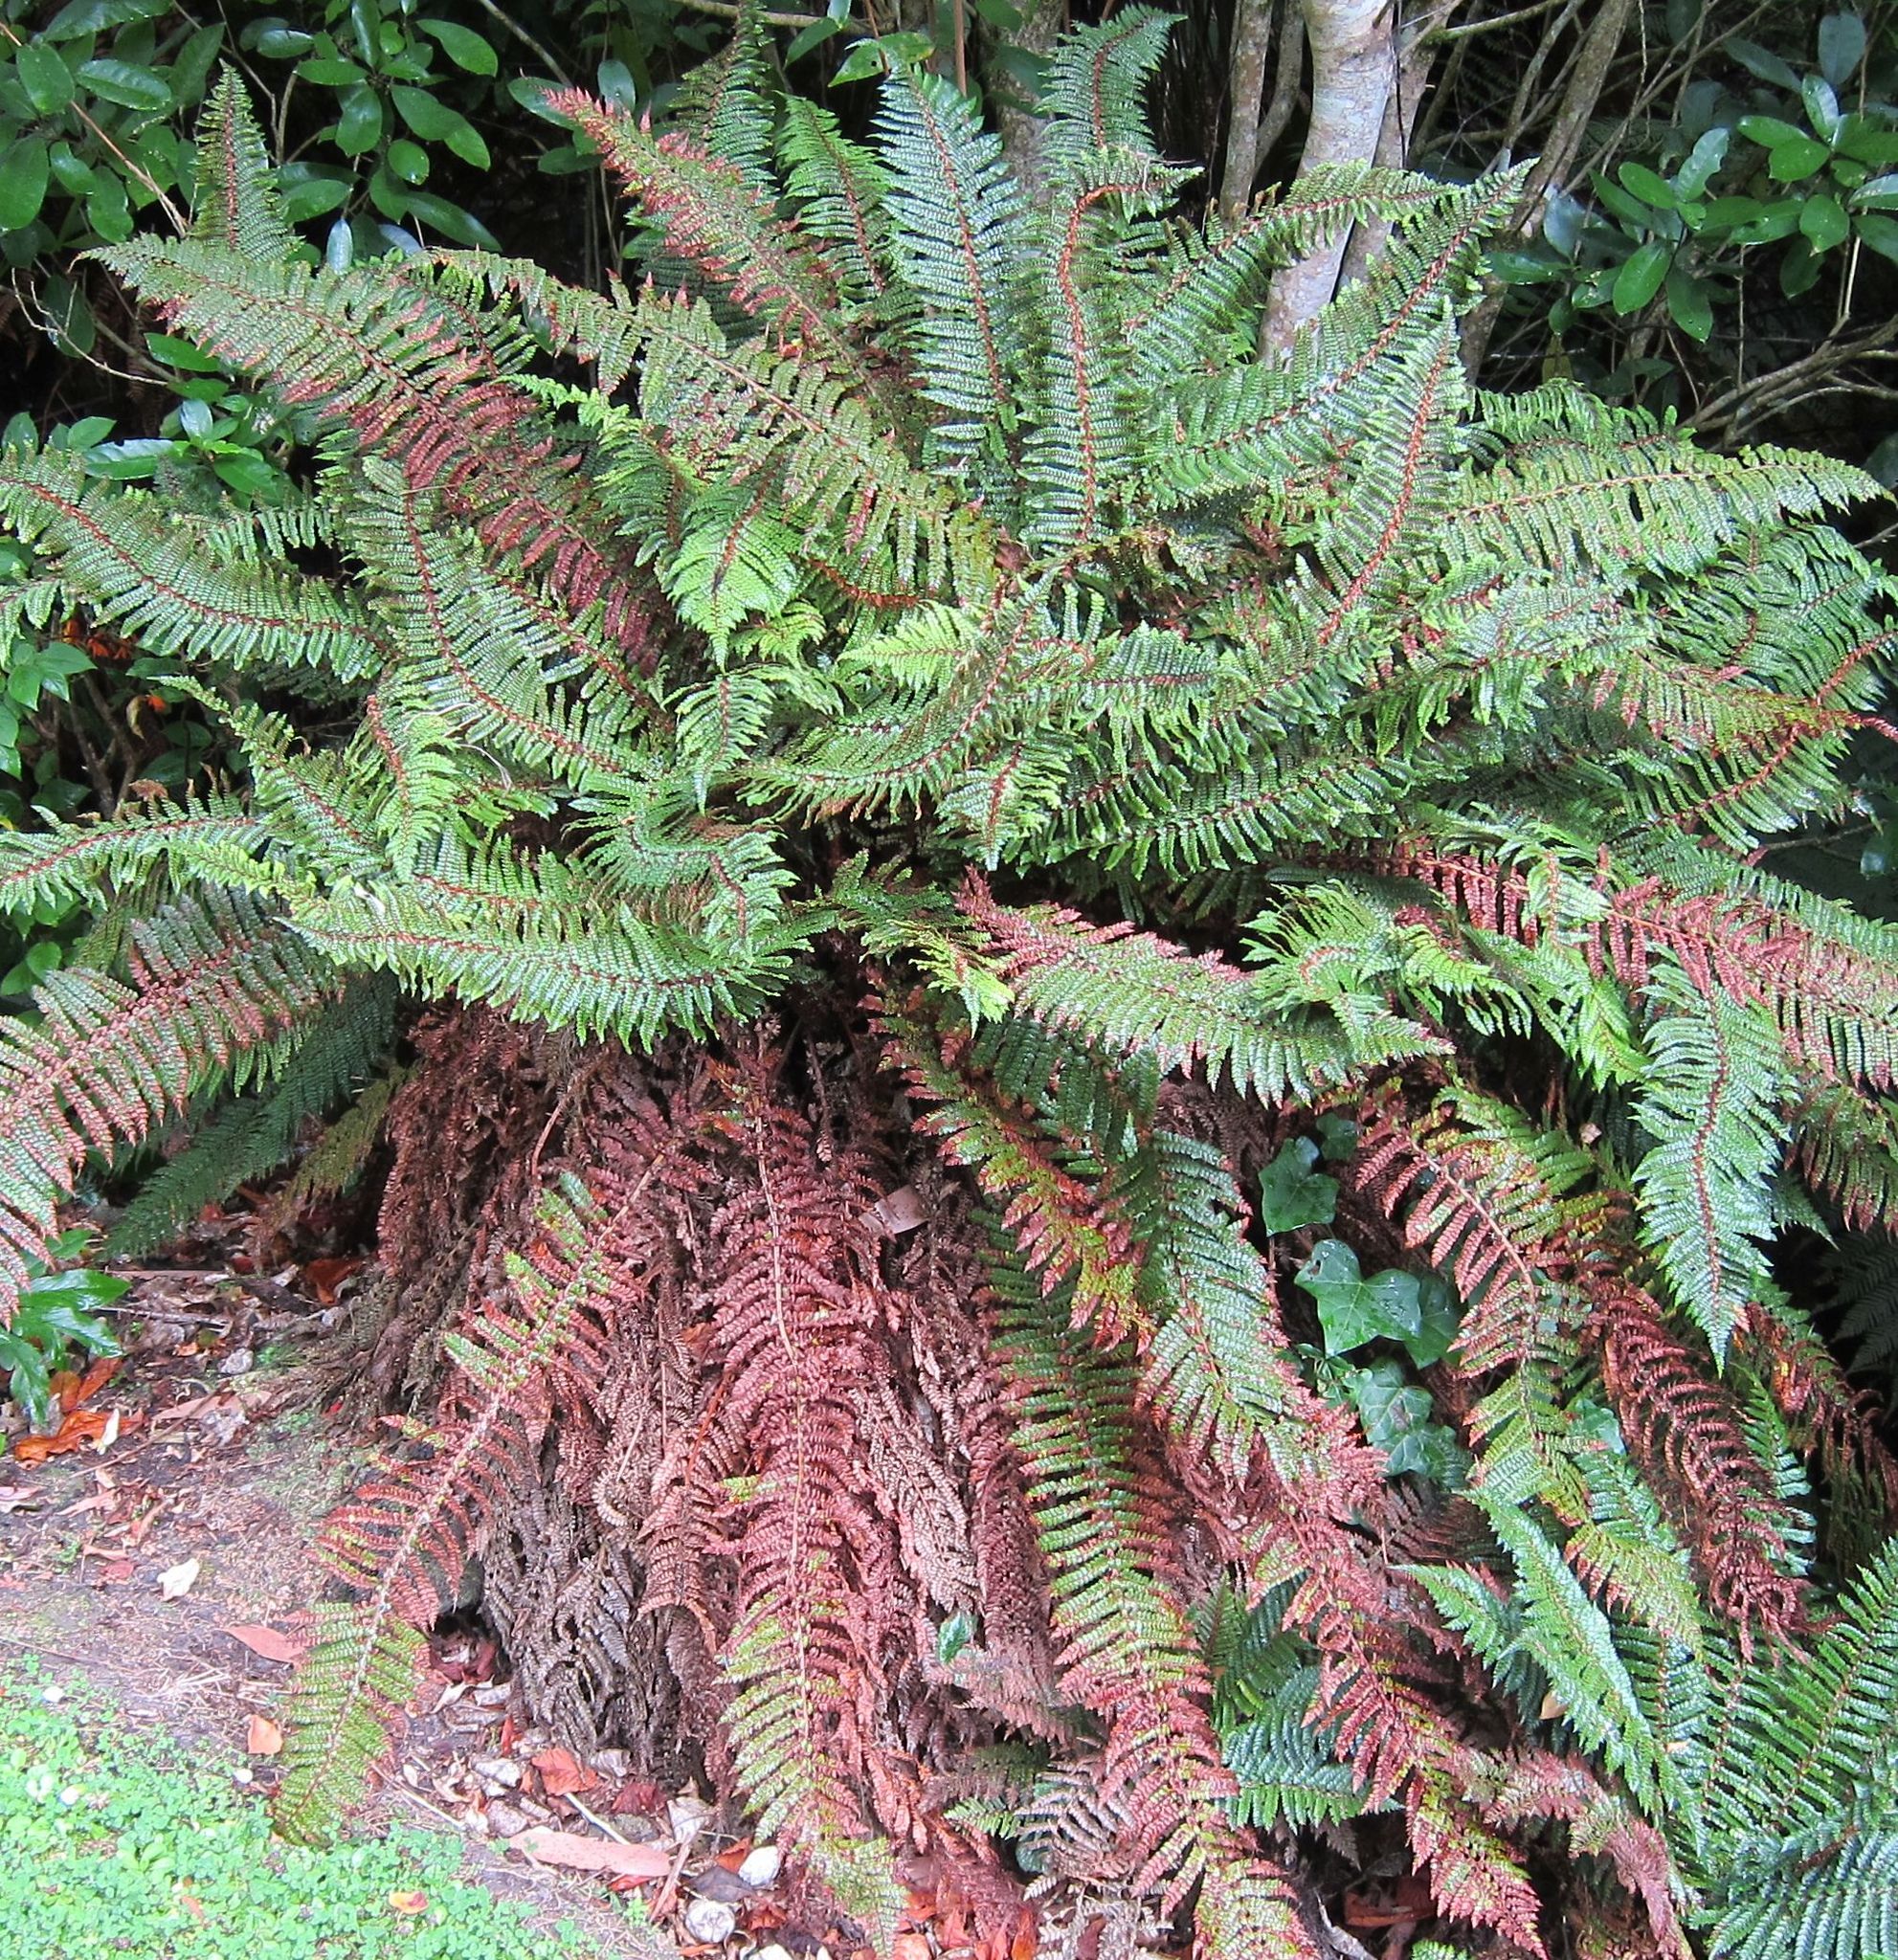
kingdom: Plantae
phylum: Tracheophyta
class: Polypodiopsida
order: Polypodiales
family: Dryopteridaceae
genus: Polystichum
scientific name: Polystichum vestitum
